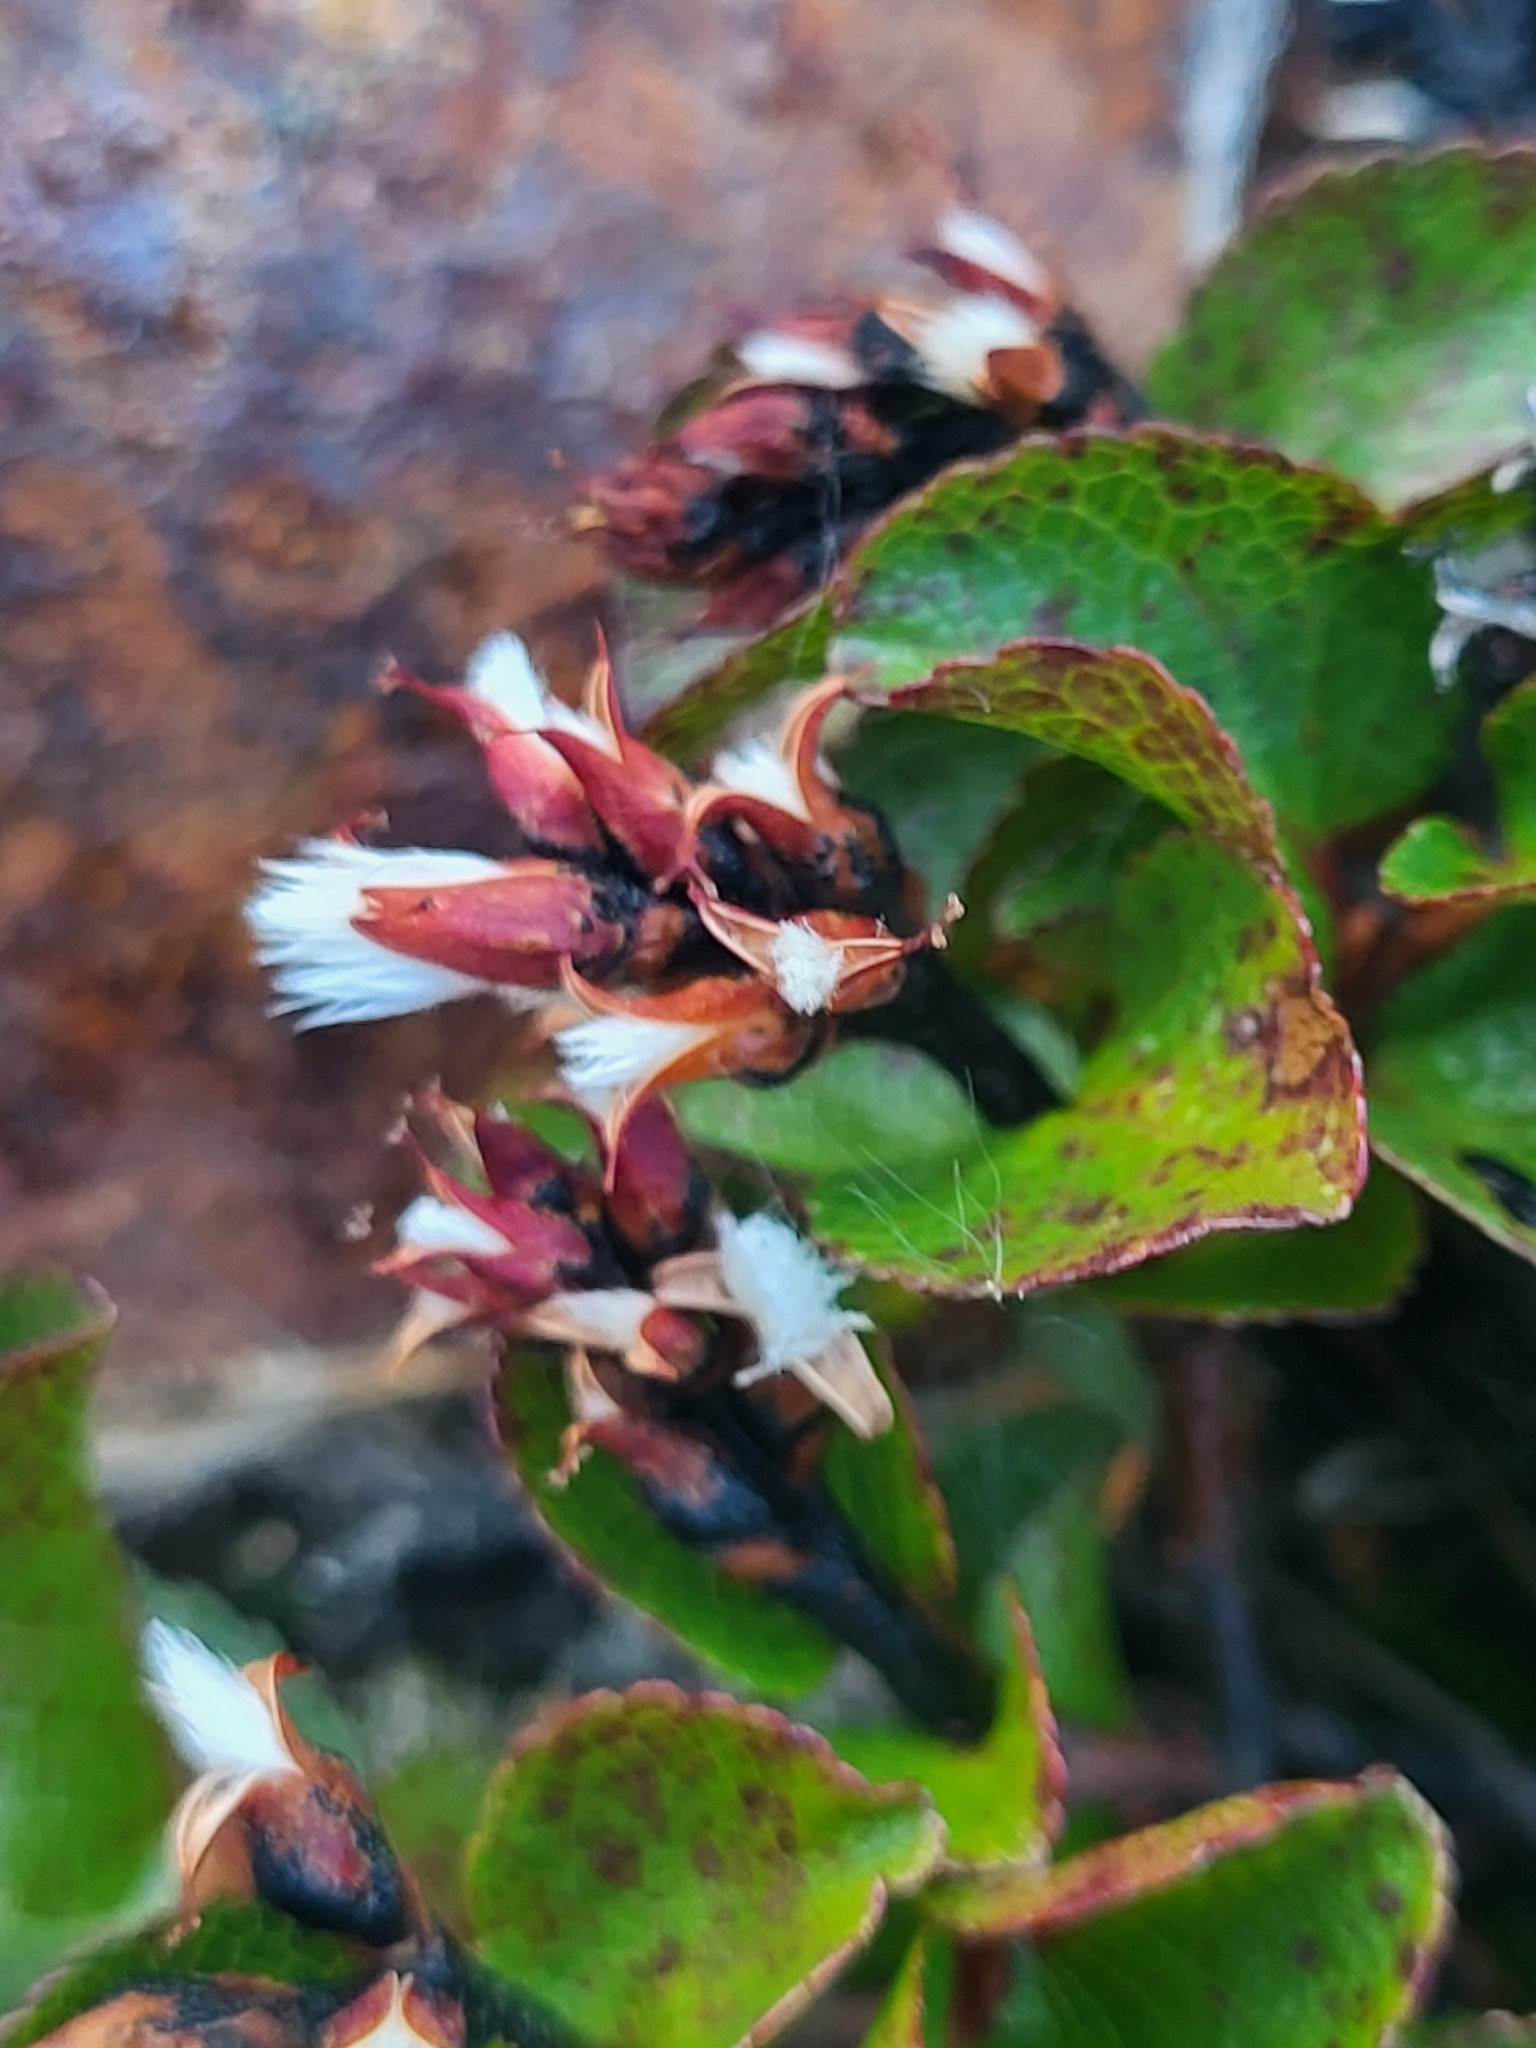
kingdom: Plantae
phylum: Tracheophyta
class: Magnoliopsida
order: Malpighiales
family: Salicaceae
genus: Salix
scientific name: Salix herbacea
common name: Dwarf willow
